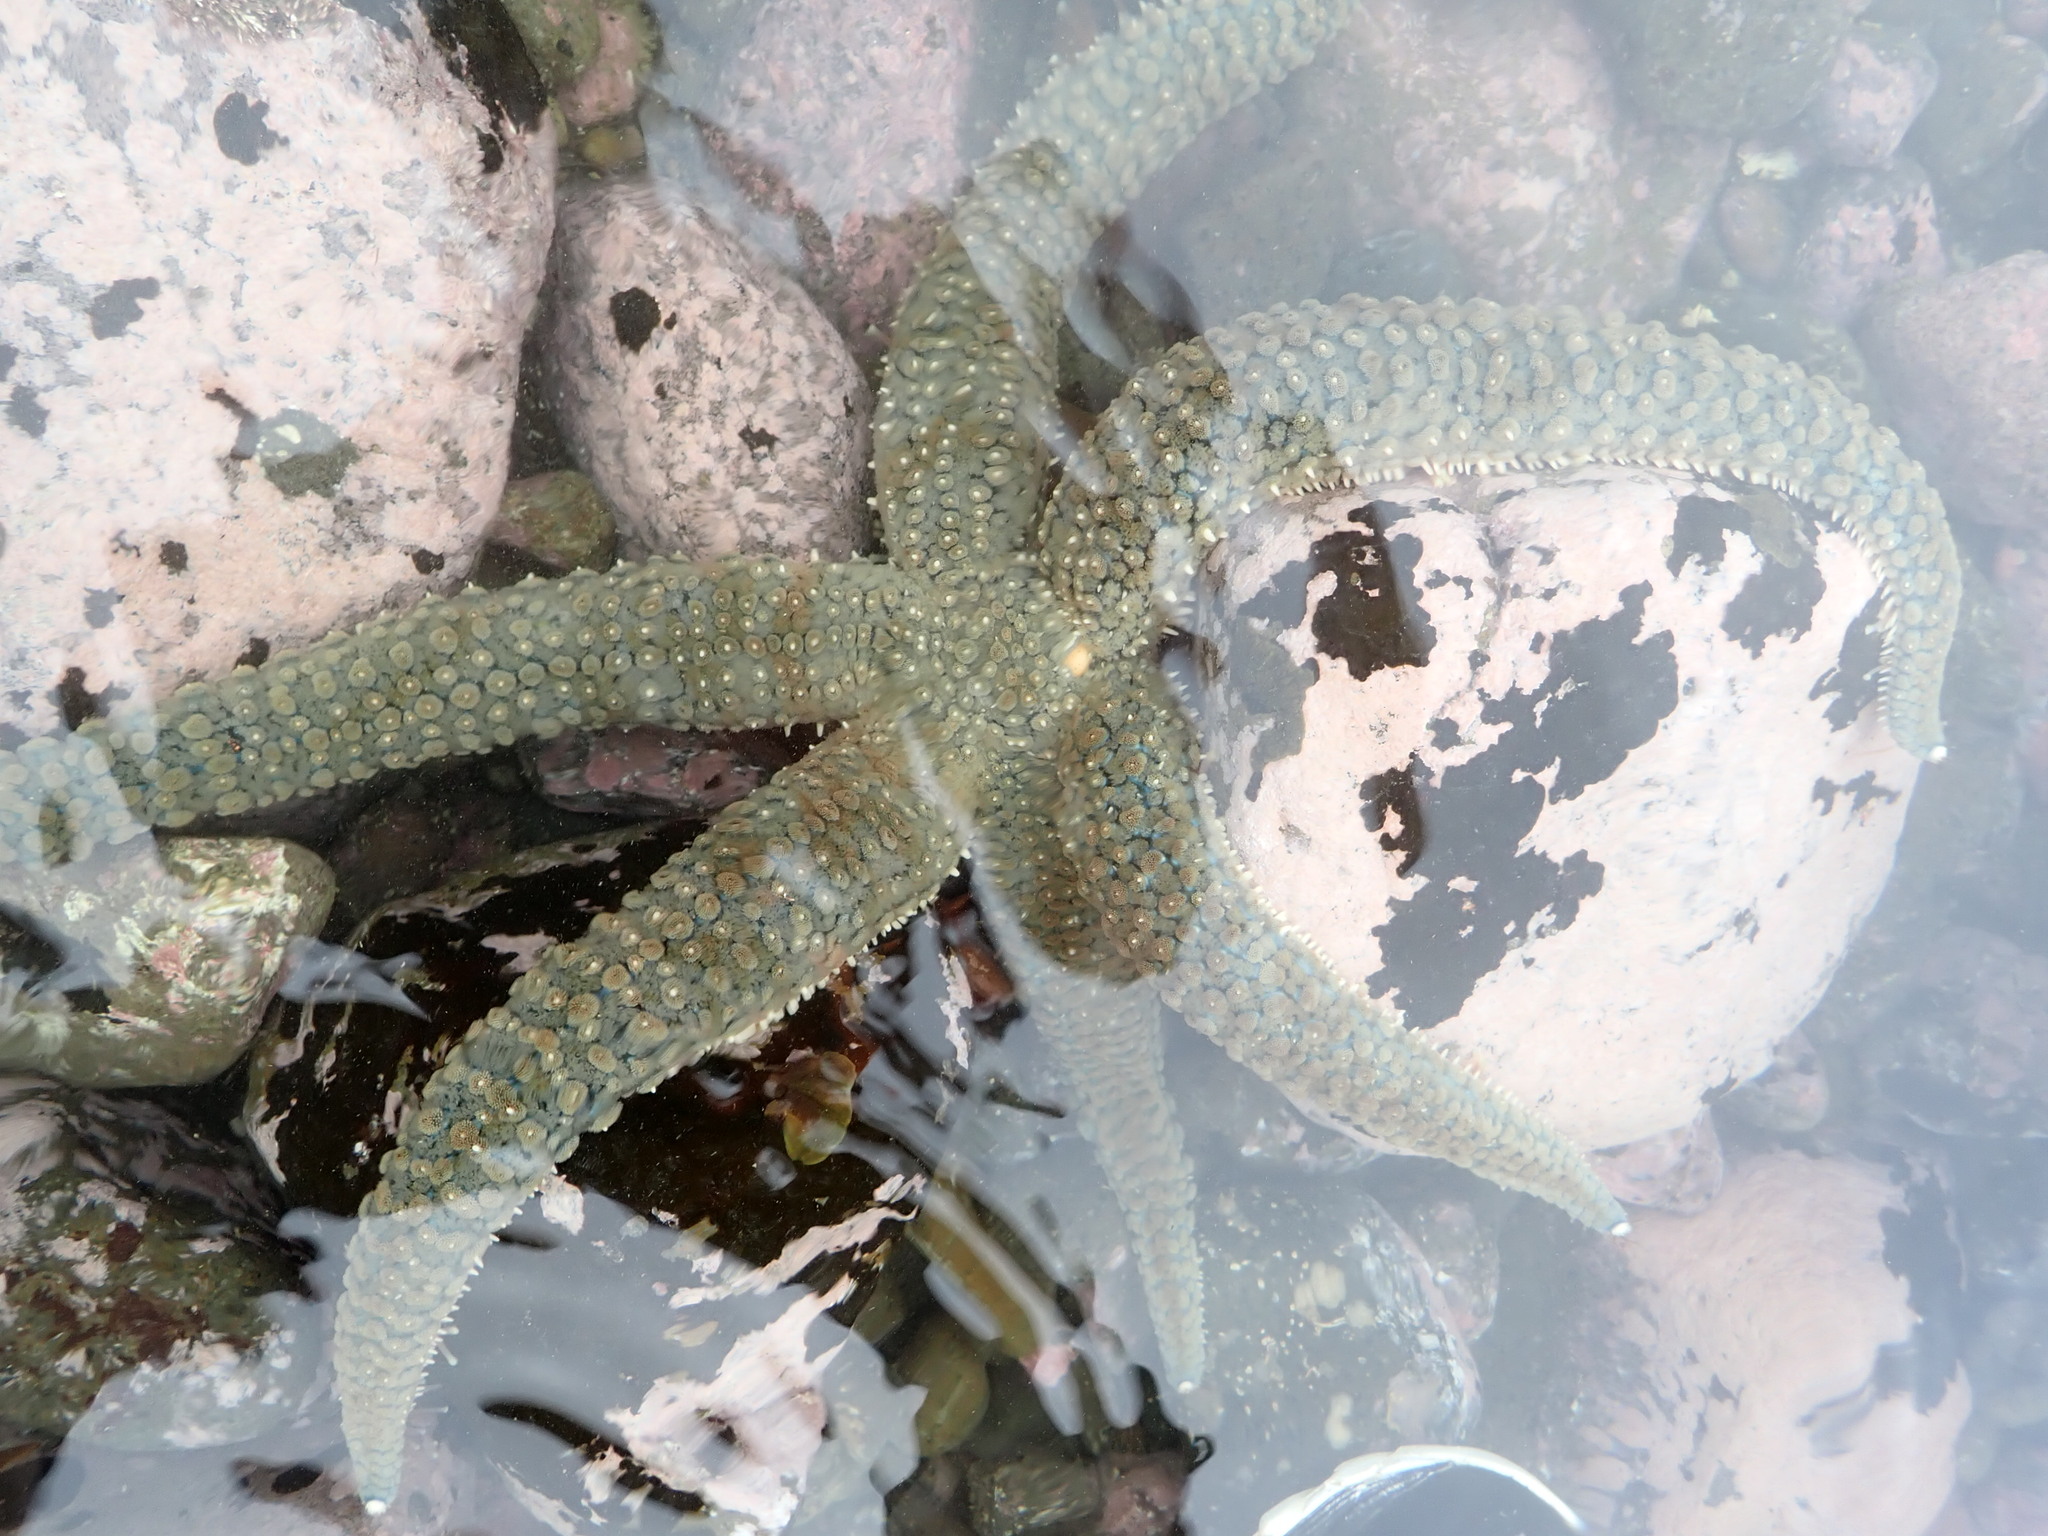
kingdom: Animalia
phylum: Echinodermata
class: Asteroidea
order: Forcipulatida
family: Asteriidae
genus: Astrostole
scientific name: Astrostole scabra
